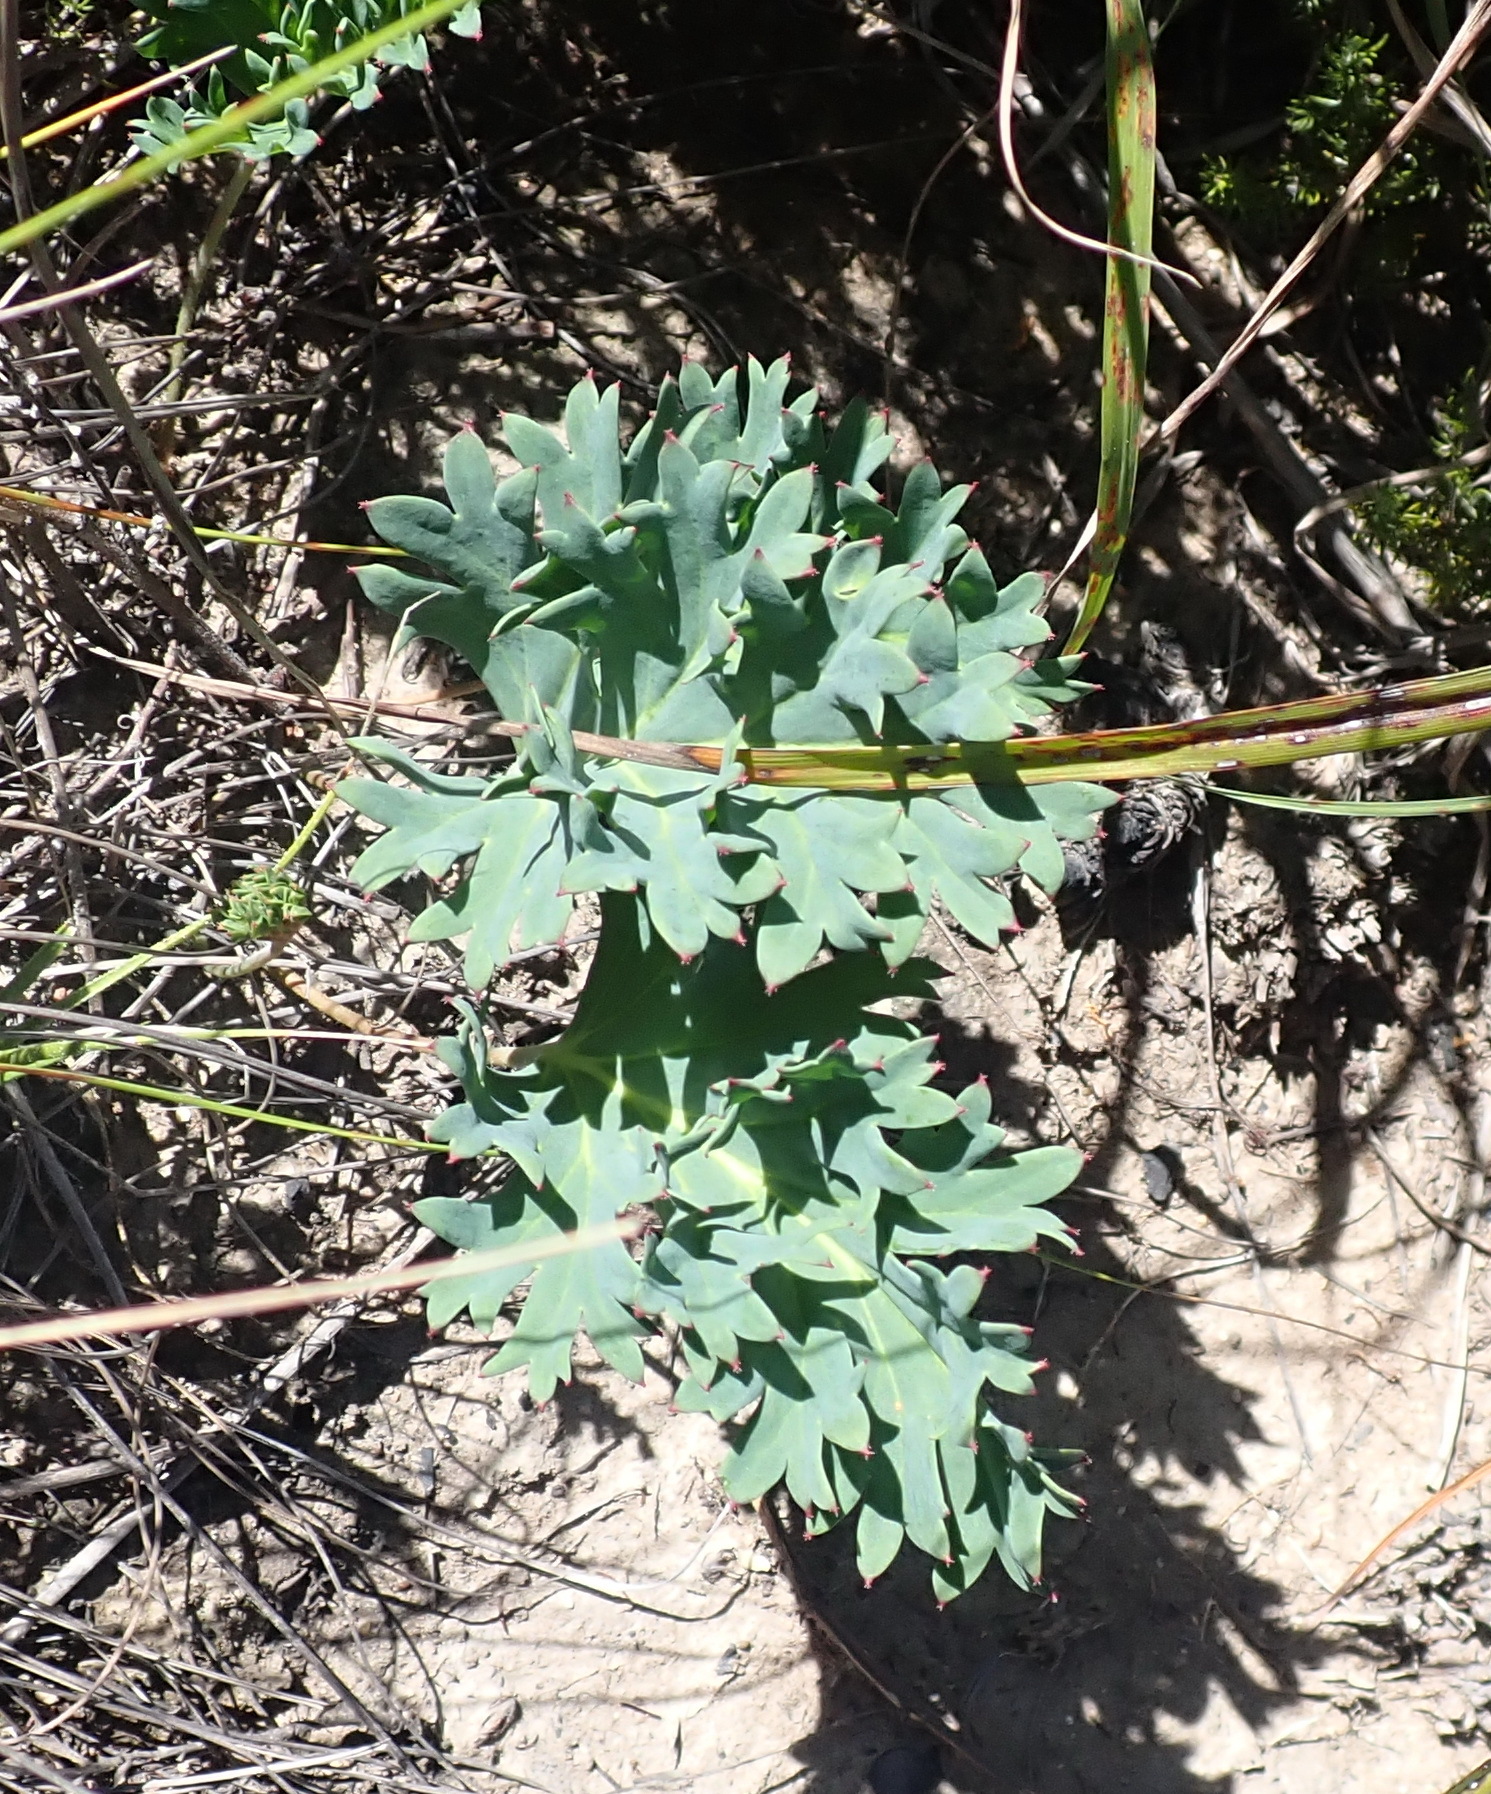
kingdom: Plantae
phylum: Tracheophyta
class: Magnoliopsida
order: Geraniales
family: Geraniaceae
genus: Pelargonium
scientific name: Pelargonium pillansii
